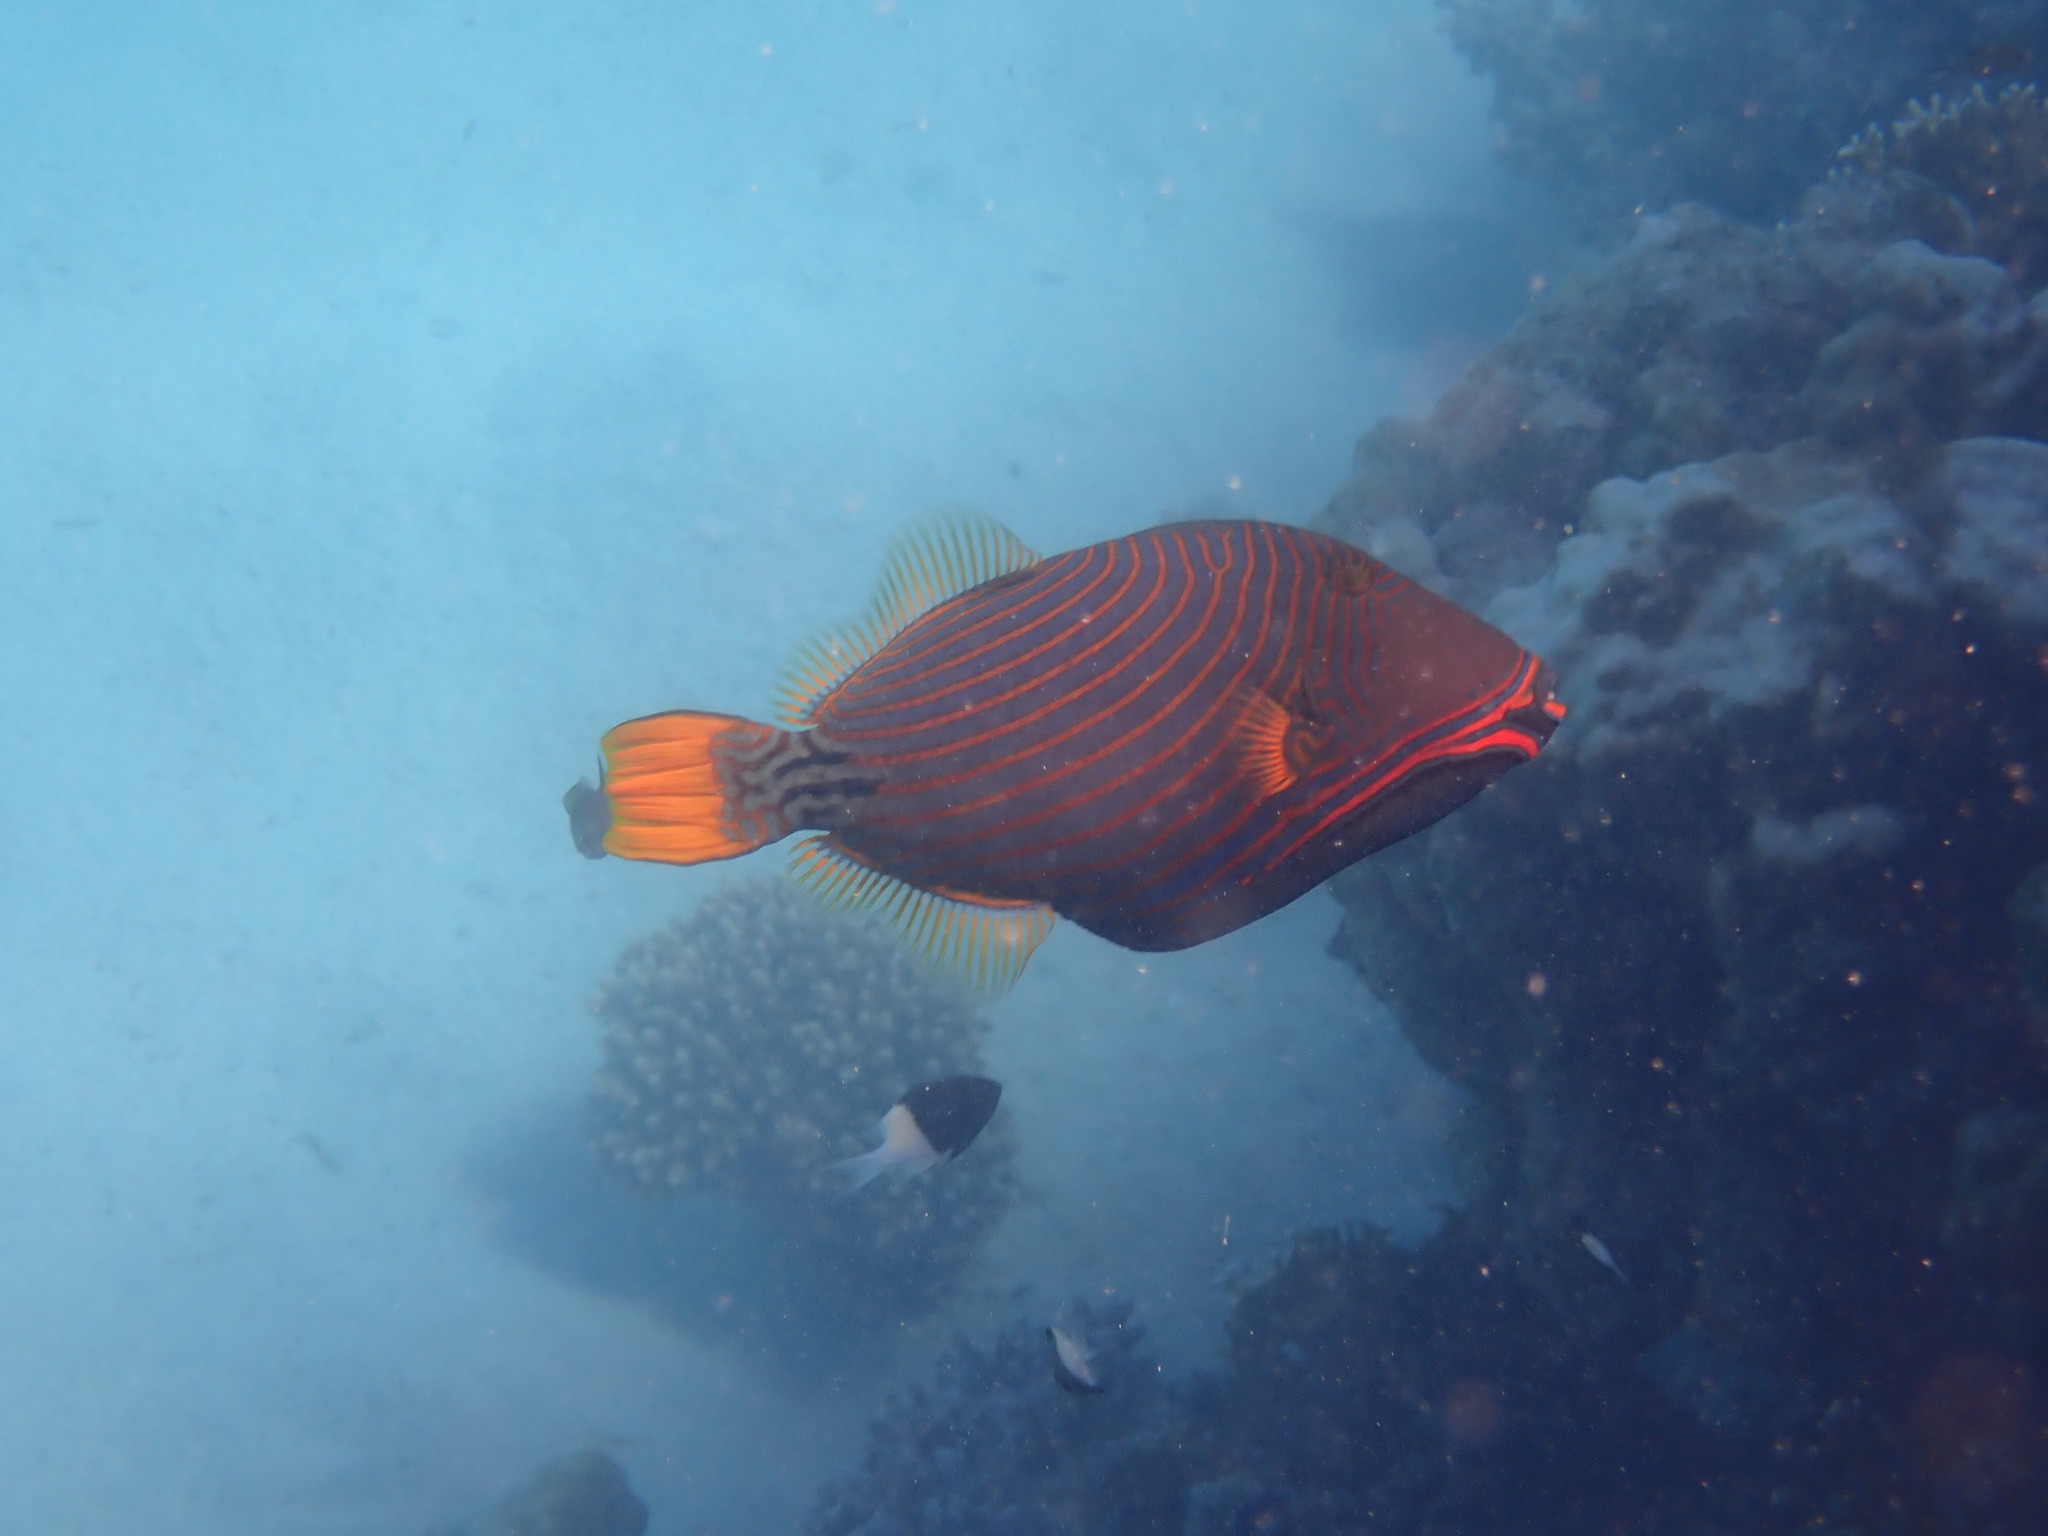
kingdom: Animalia
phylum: Chordata
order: Tetraodontiformes
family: Balistidae
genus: Balistapus
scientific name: Balistapus undulatus
